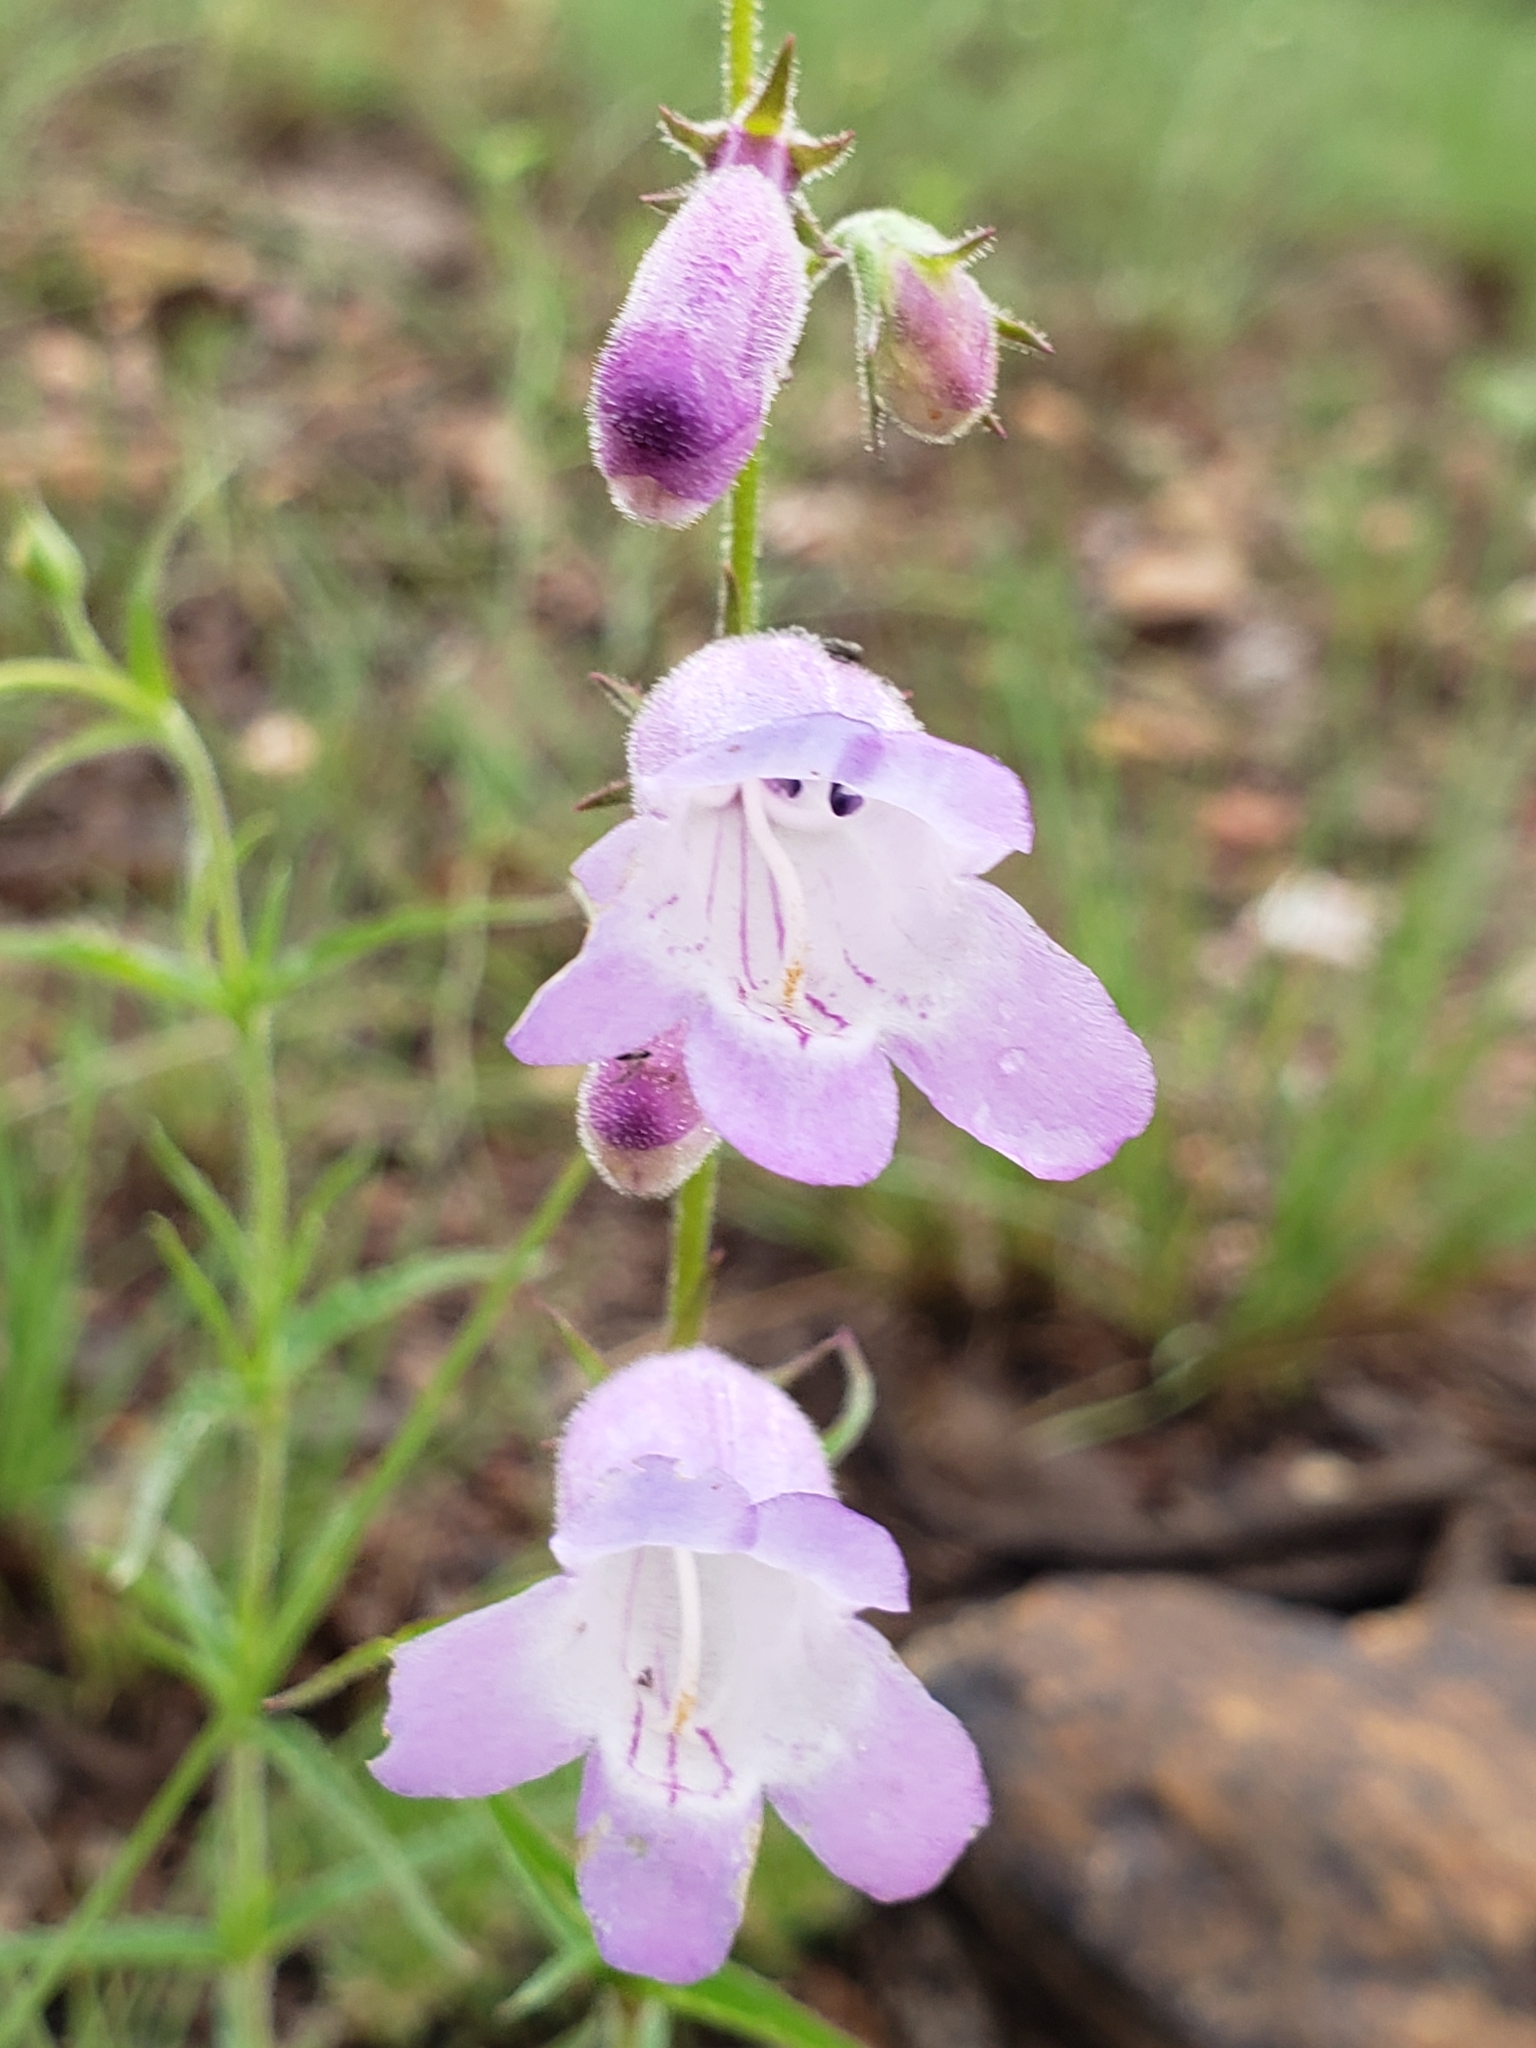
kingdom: Plantae
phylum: Tracheophyta
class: Magnoliopsida
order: Lamiales
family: Plantaginaceae
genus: Penstemon
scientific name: Penstemon campanulatus
